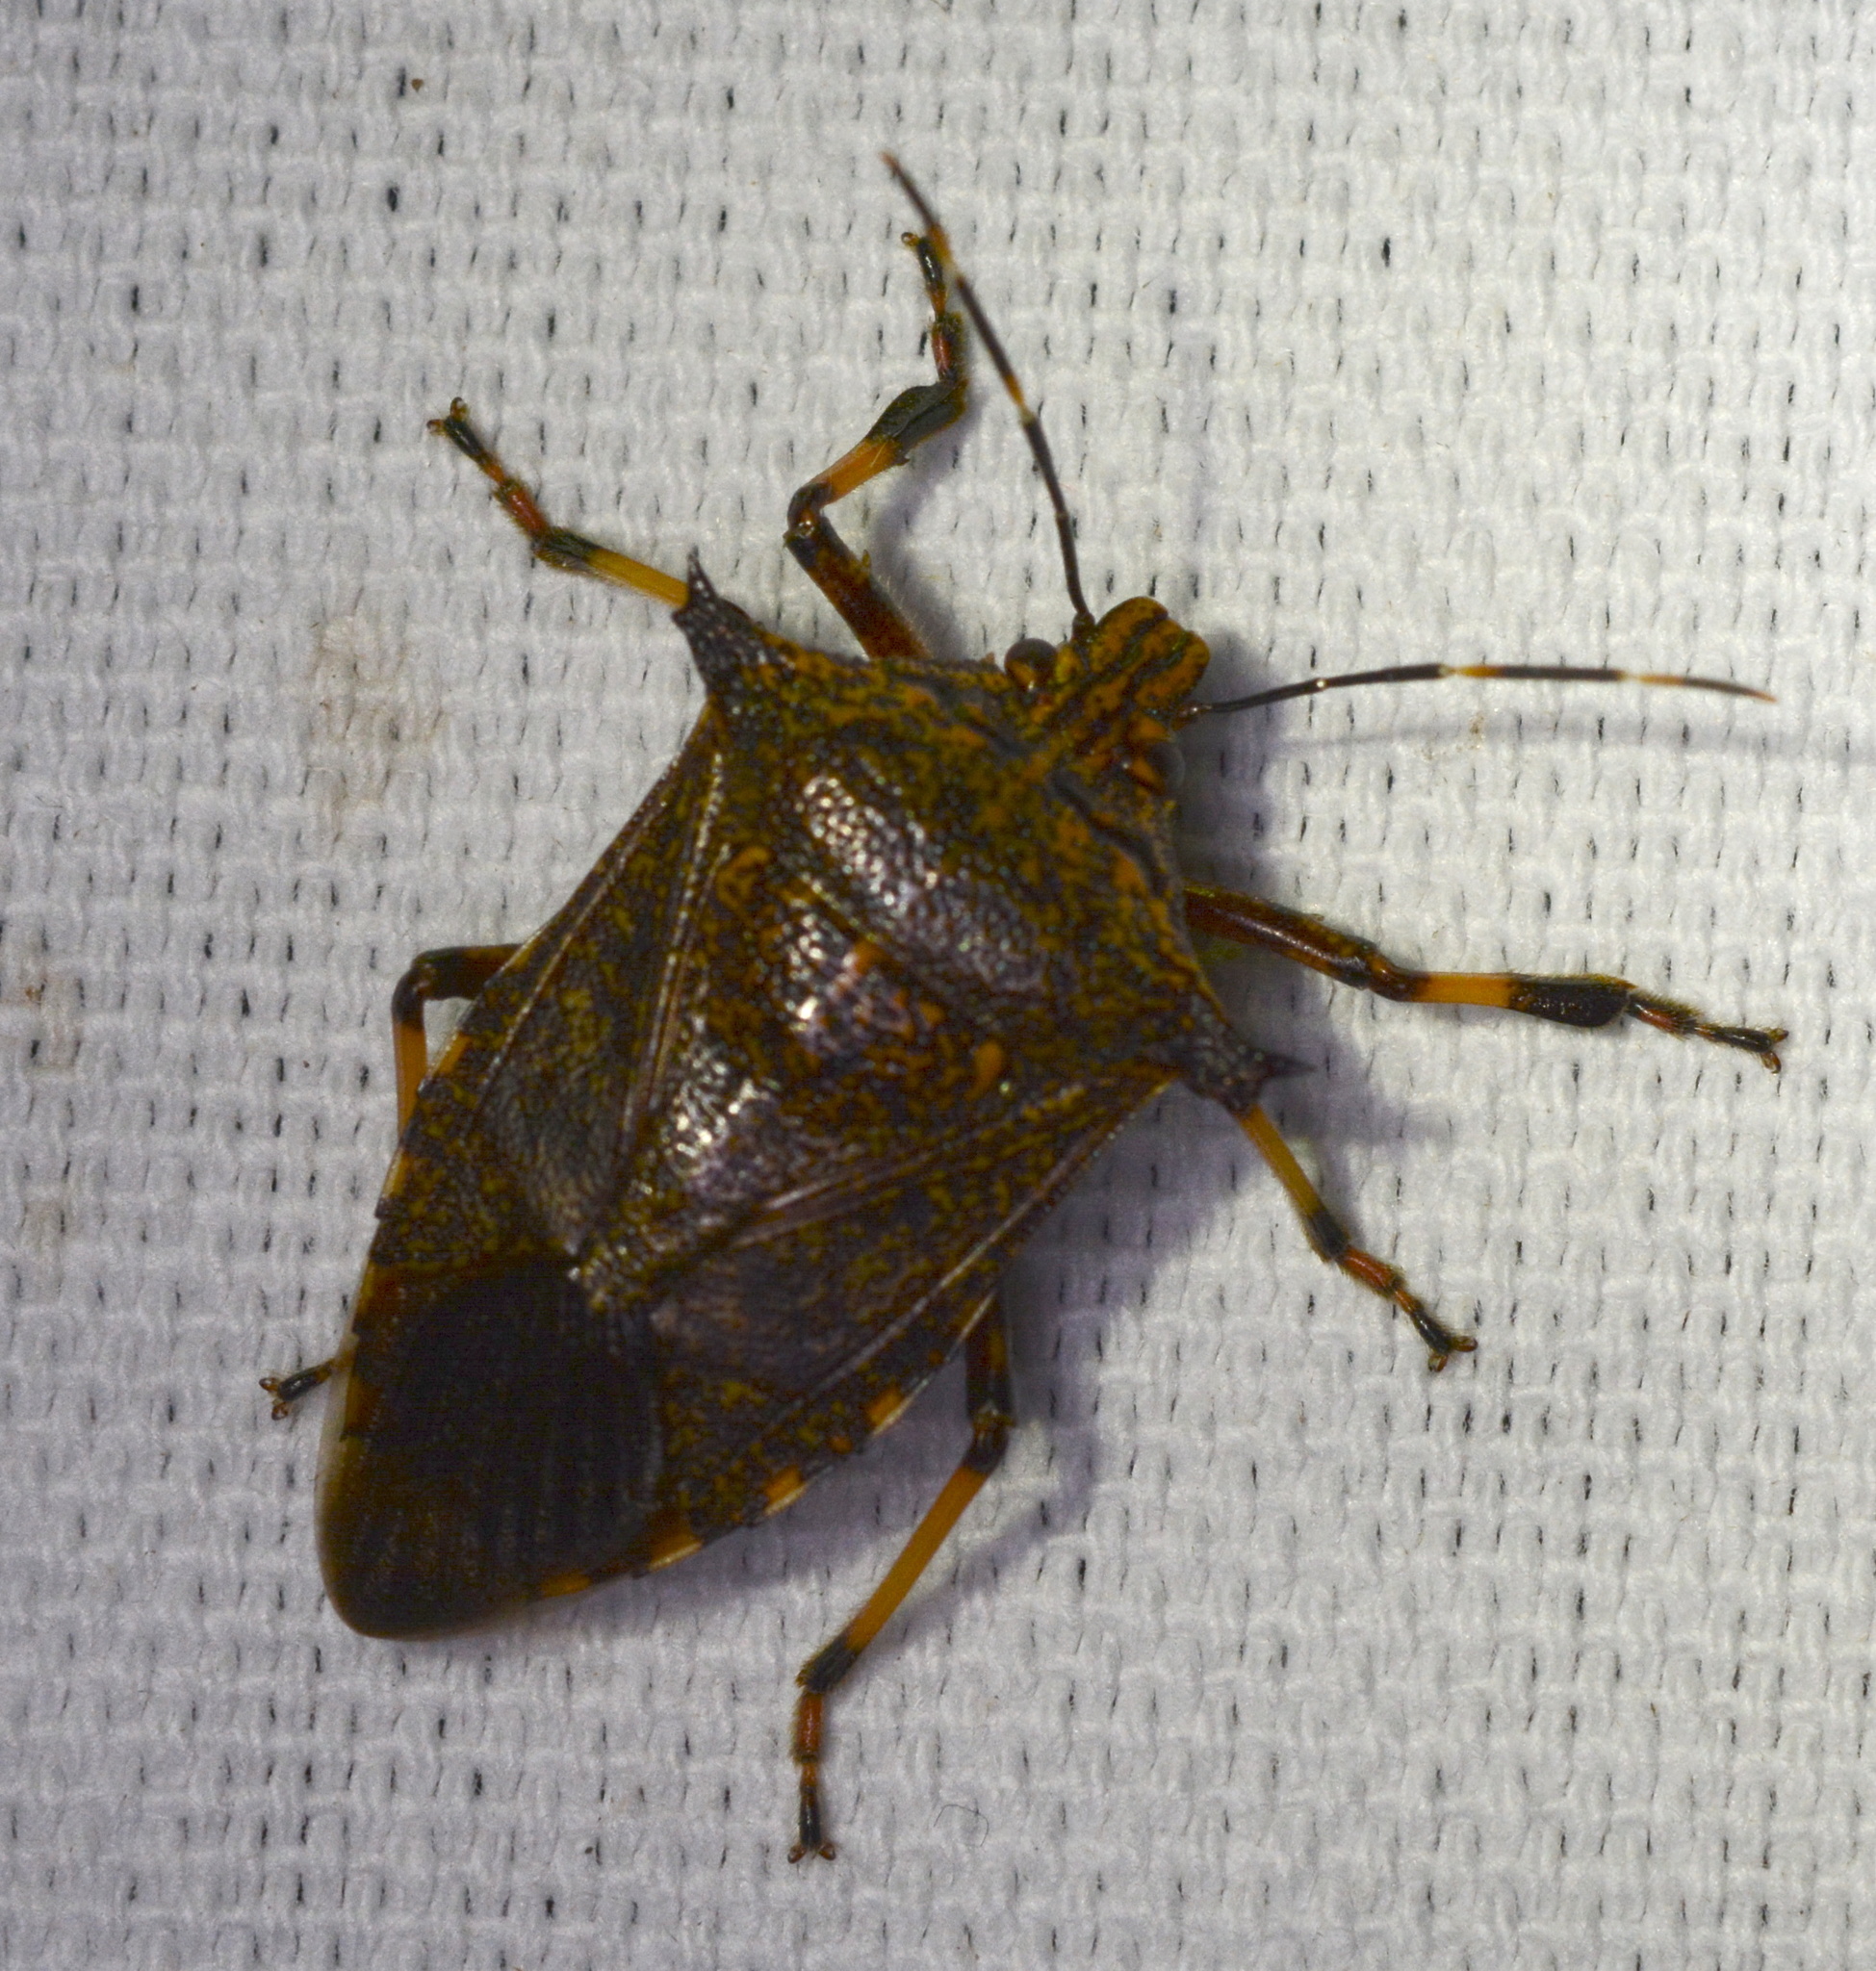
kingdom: Animalia
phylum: Arthropoda
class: Insecta
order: Hemiptera
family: Pentatomidae
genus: Alcaeorrhynchus
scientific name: Alcaeorrhynchus grandis
